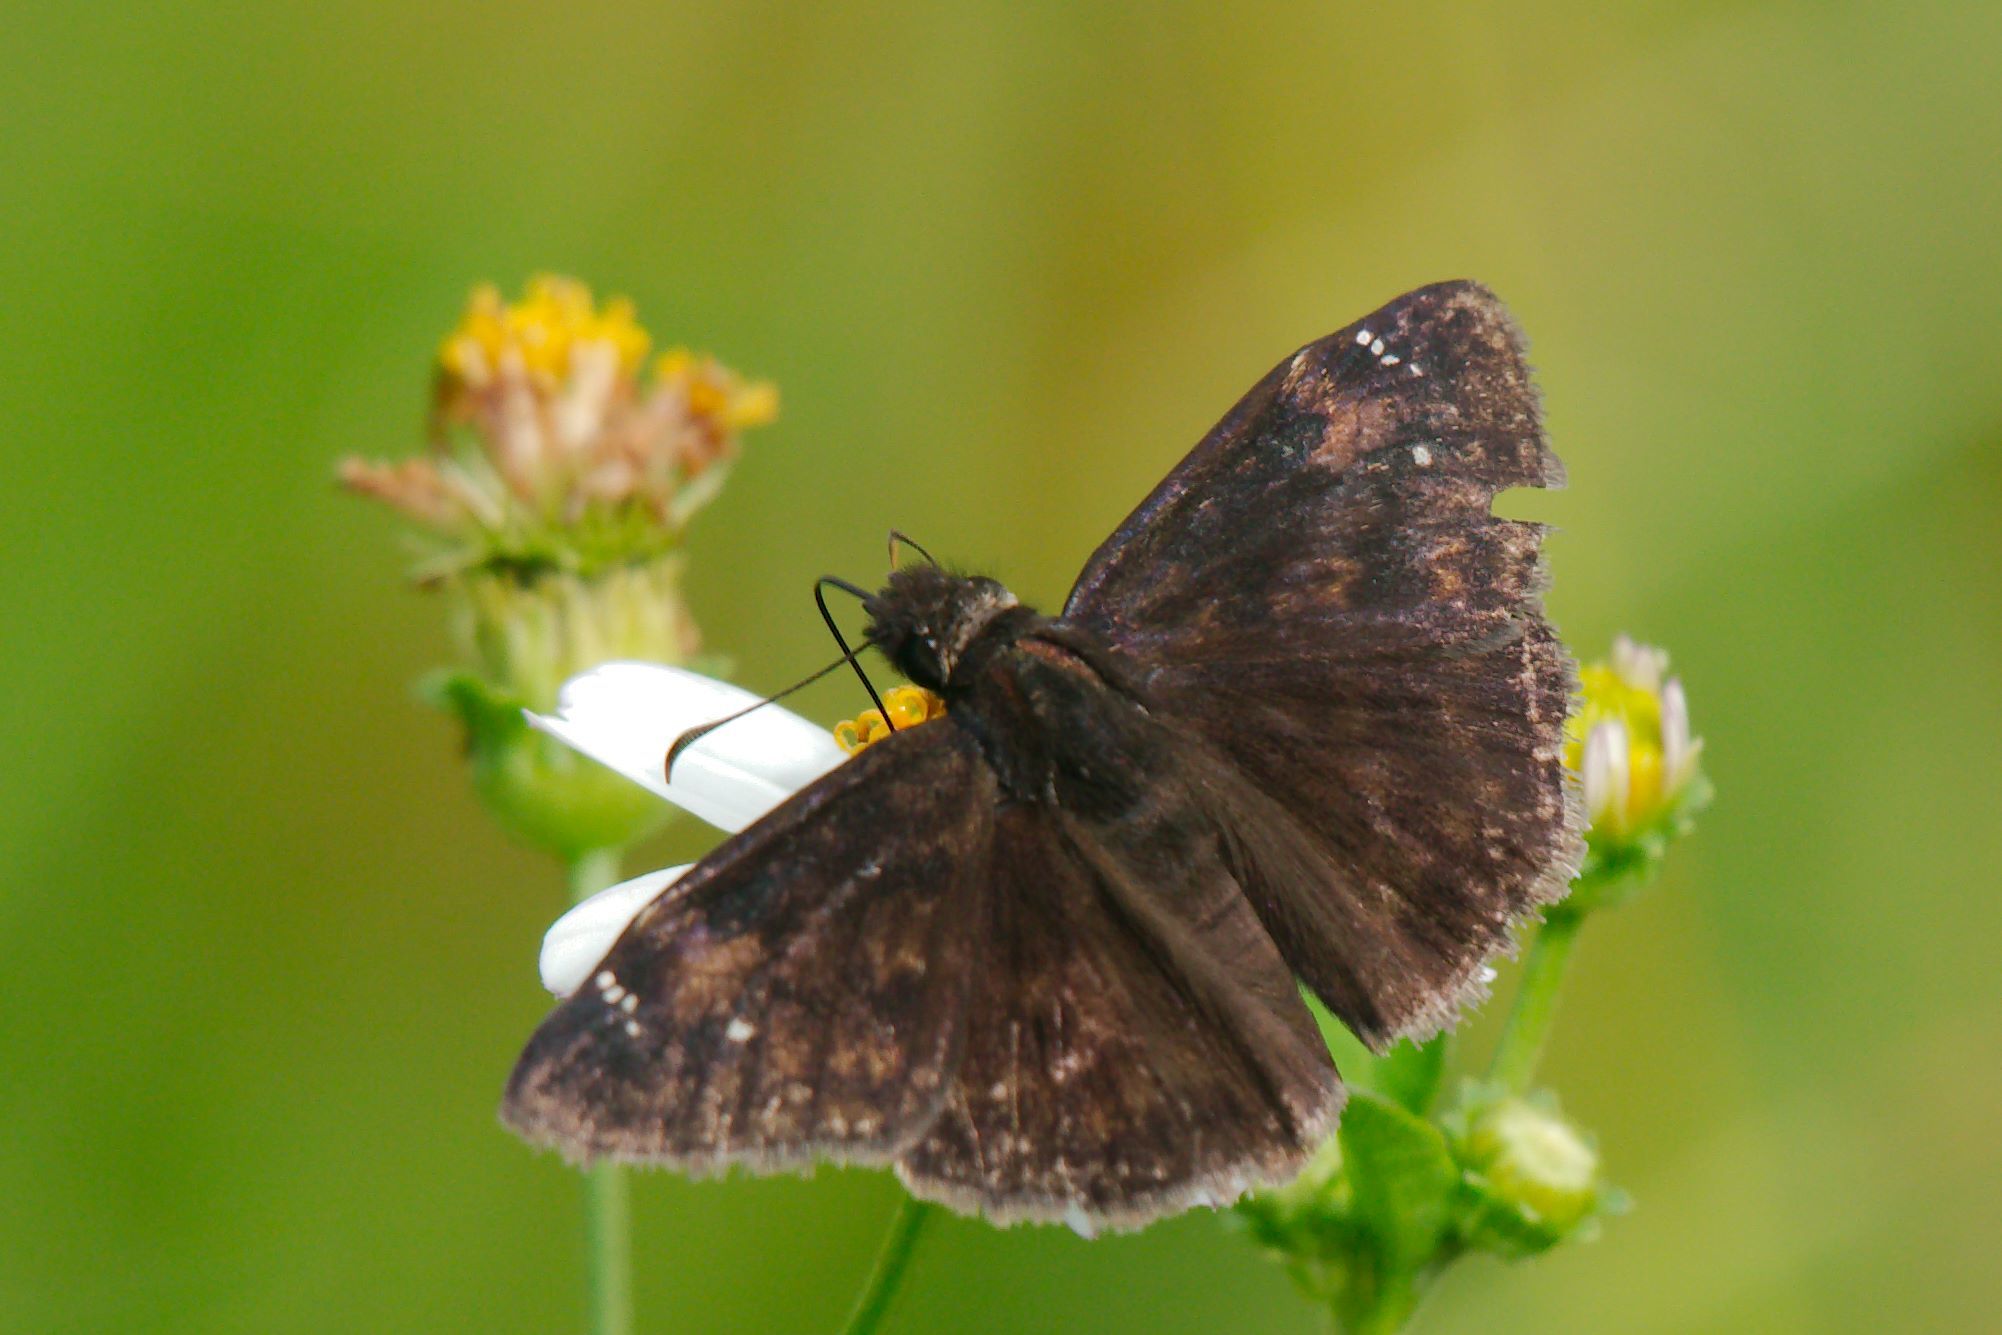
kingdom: Animalia
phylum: Arthropoda
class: Insecta
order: Lepidoptera
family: Hesperiidae
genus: Erynnis
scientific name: Erynnis zarucco
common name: Zarucco duskywing
